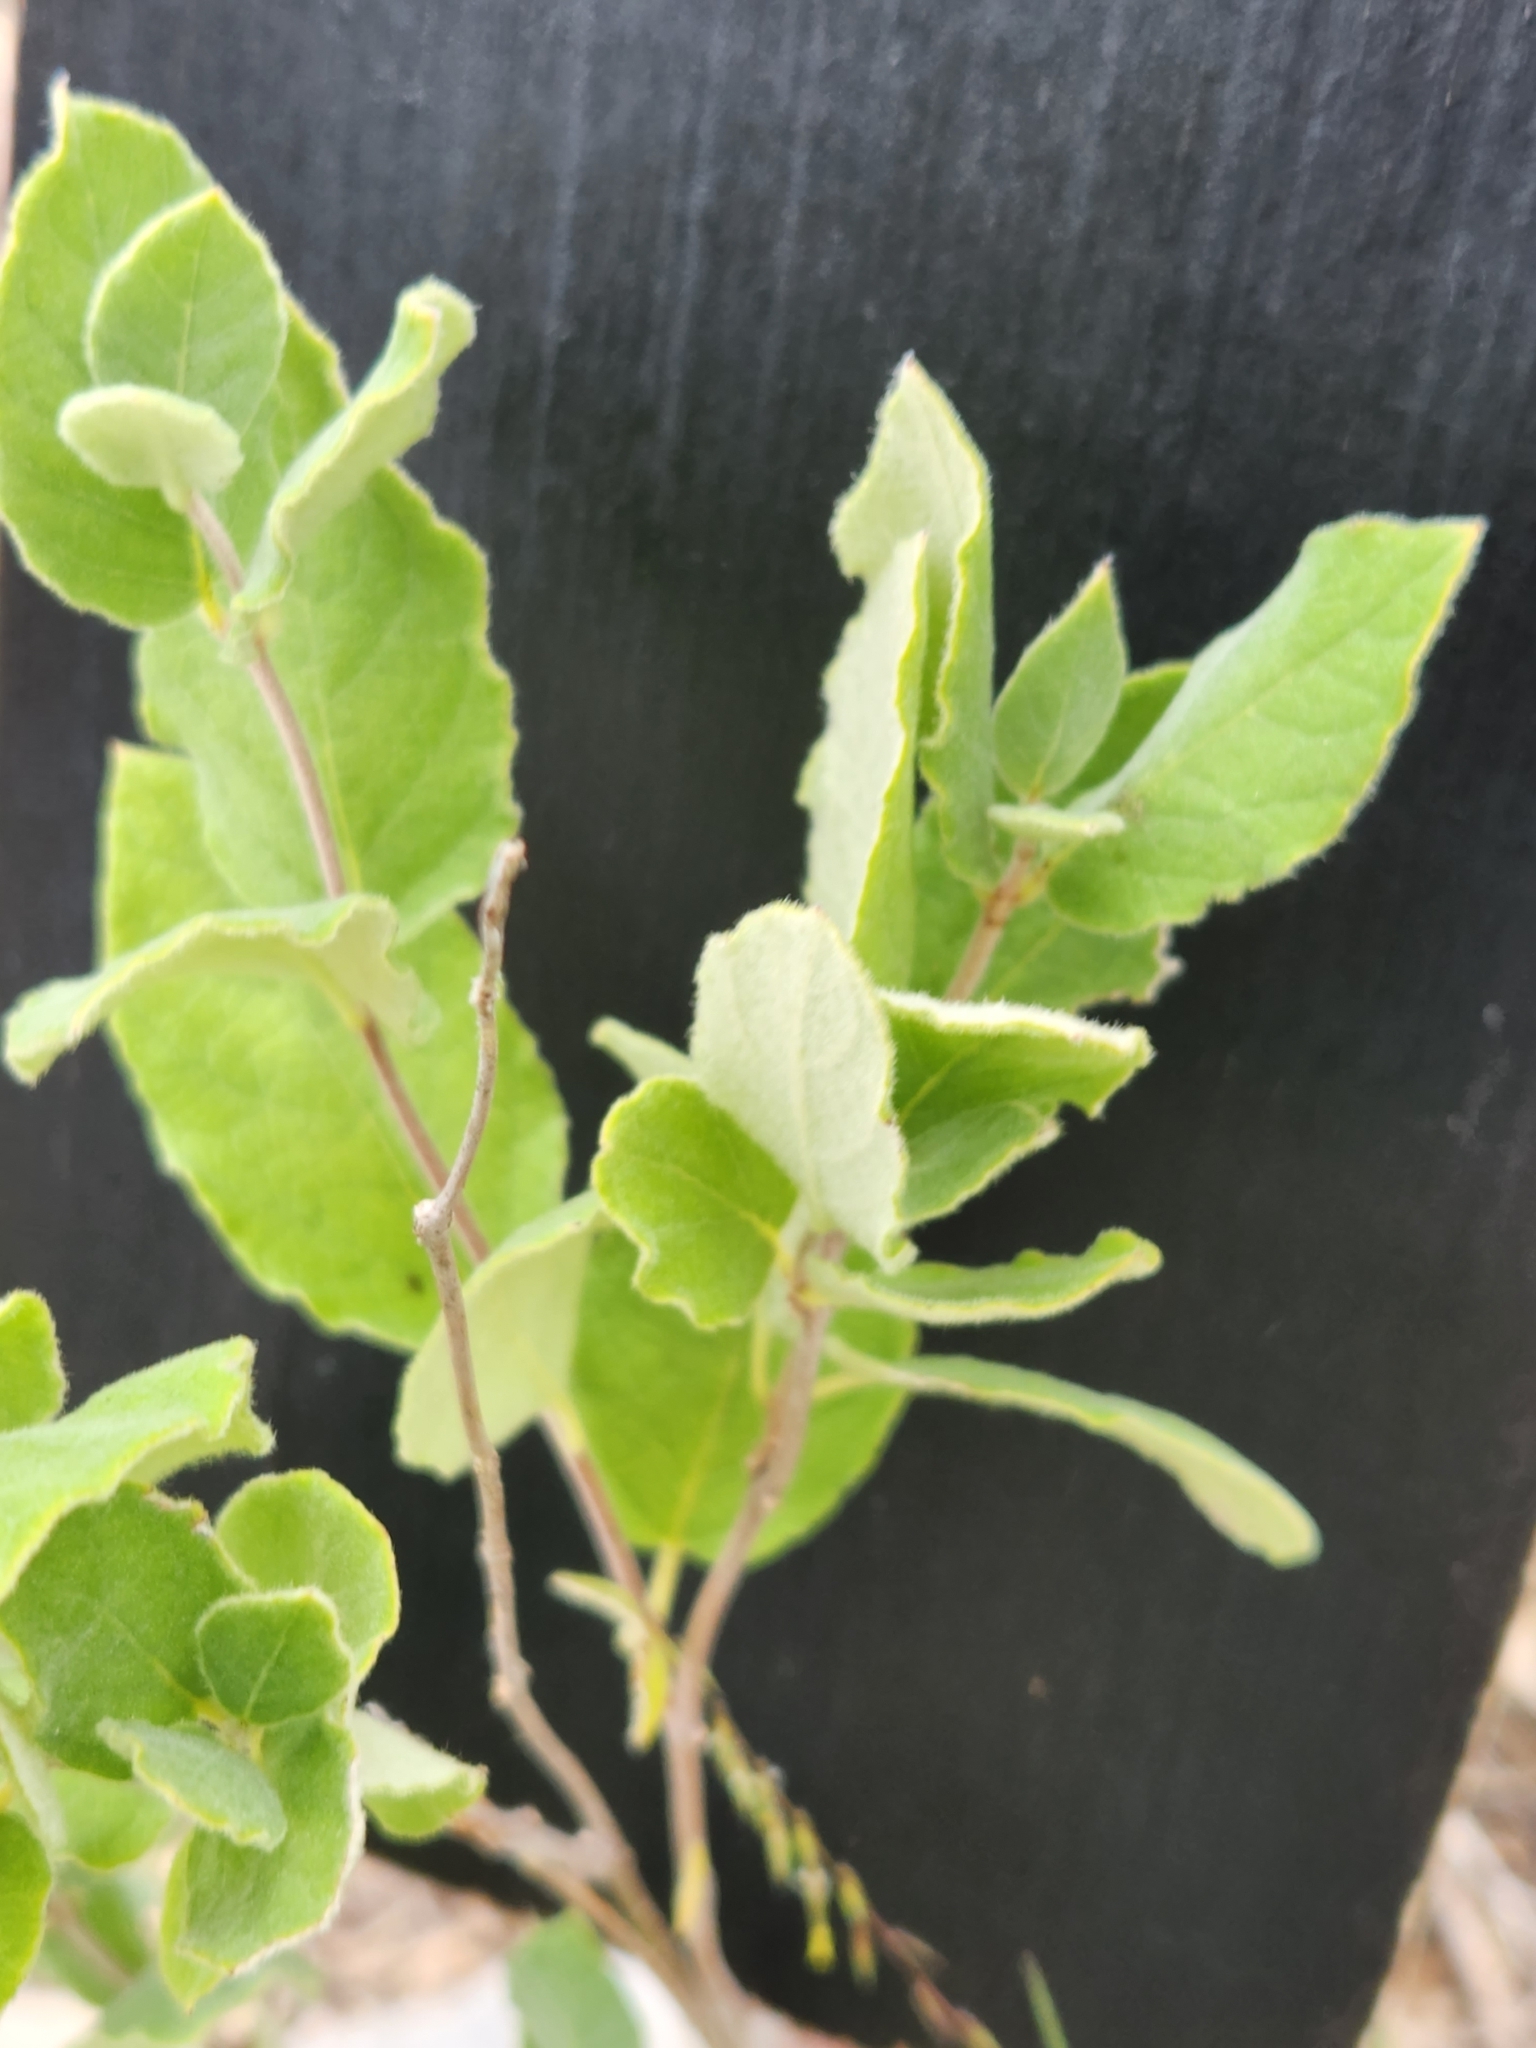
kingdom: Plantae
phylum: Tracheophyta
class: Magnoliopsida
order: Gentianales
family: Apocynaceae
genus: Mandevilla
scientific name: Mandevilla macrosiphon
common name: Plateau rocktrumpet
